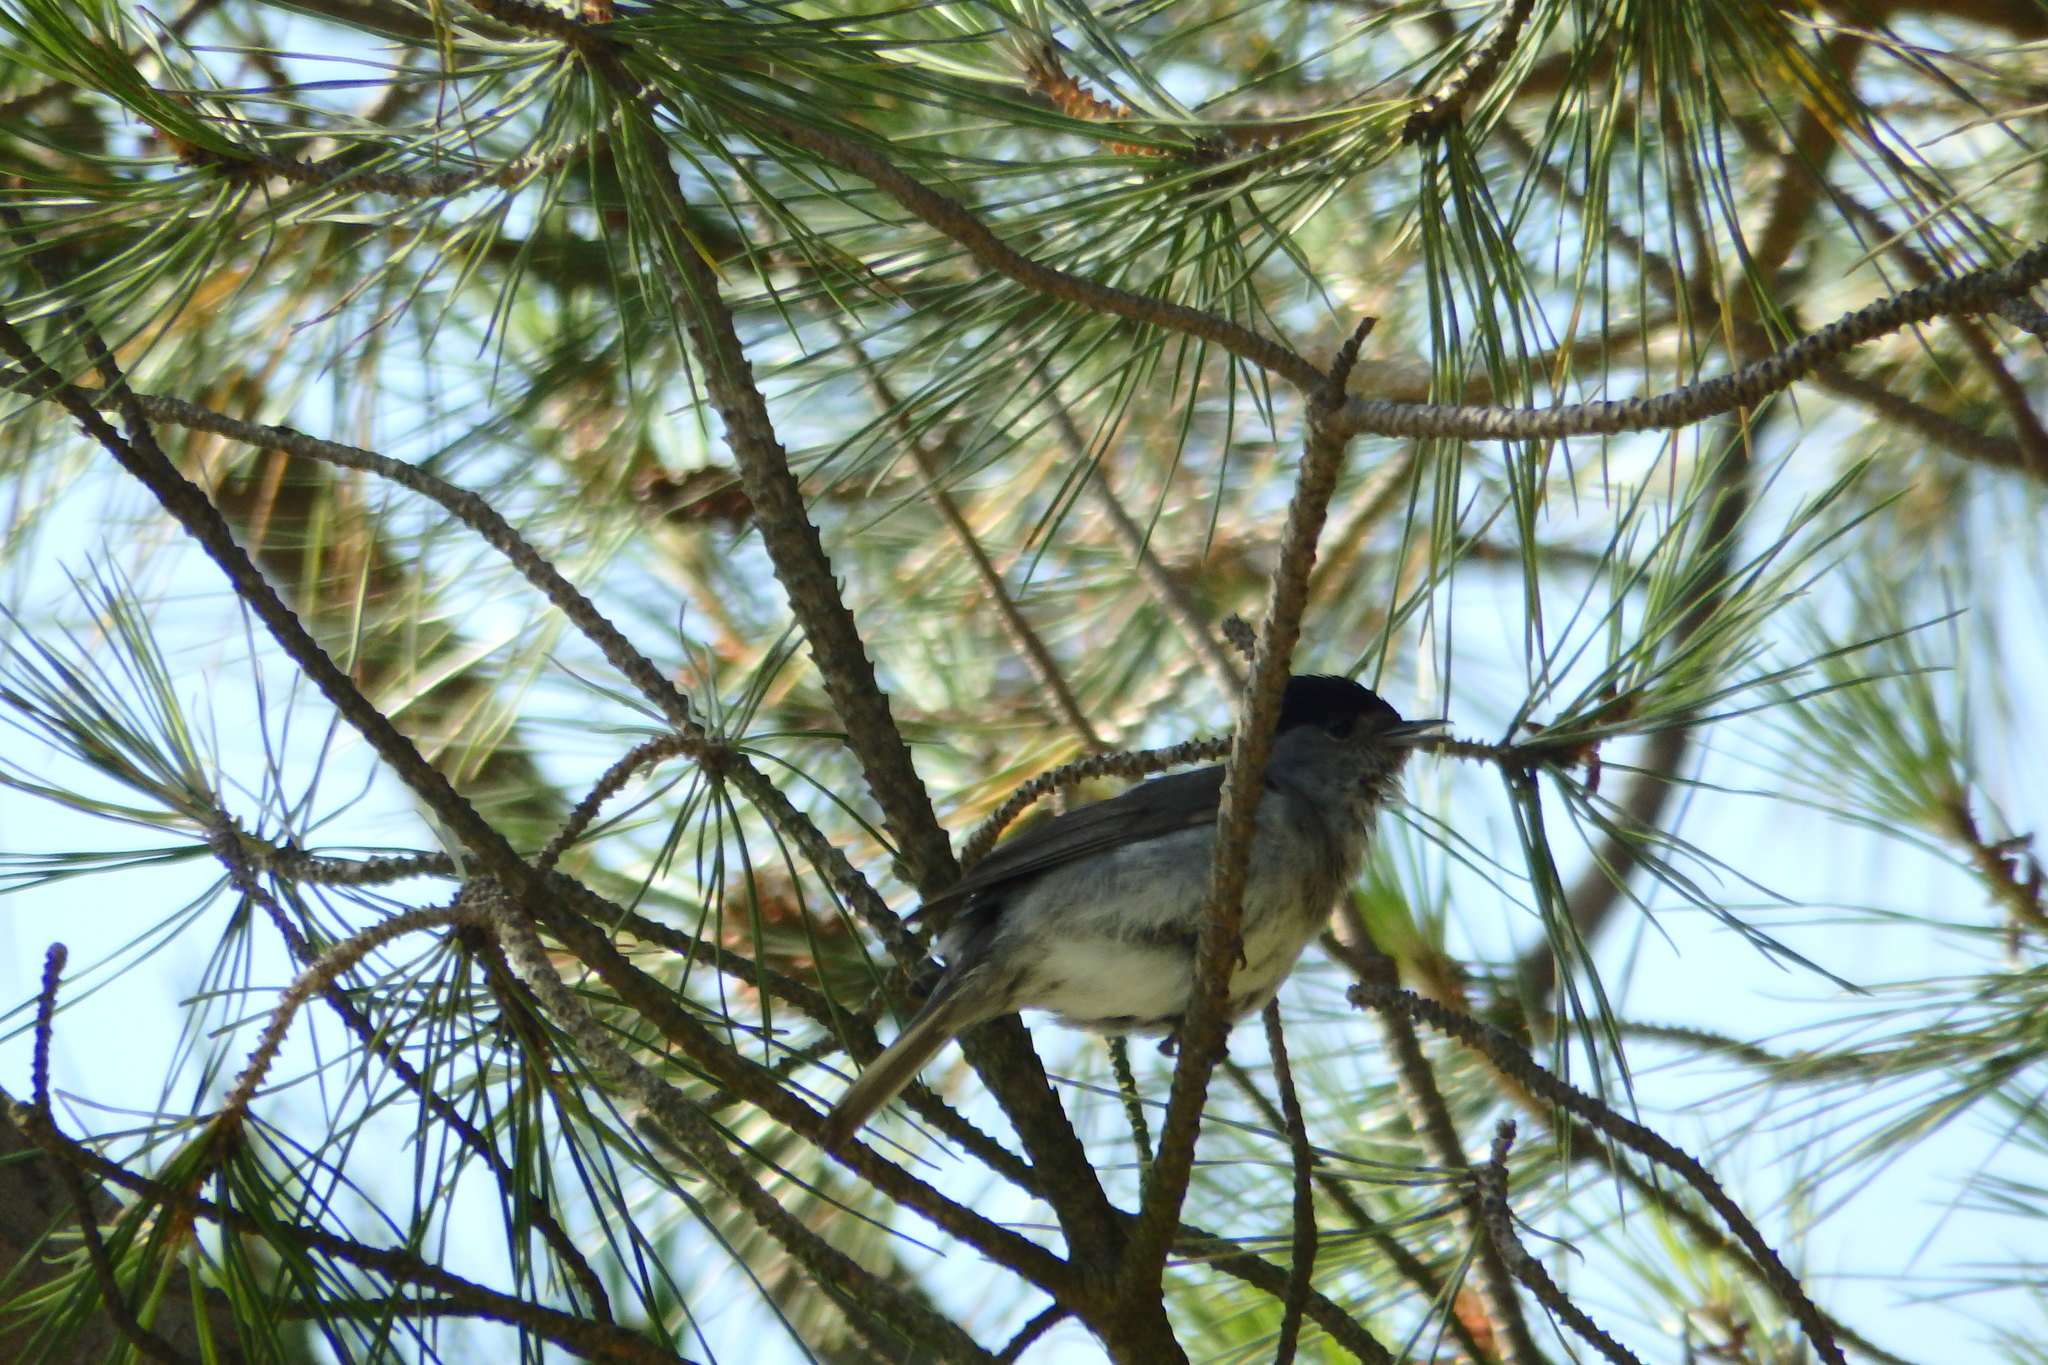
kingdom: Animalia
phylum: Chordata
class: Aves
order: Passeriformes
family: Sylviidae
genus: Sylvia
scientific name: Sylvia atricapilla
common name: Eurasian blackcap
